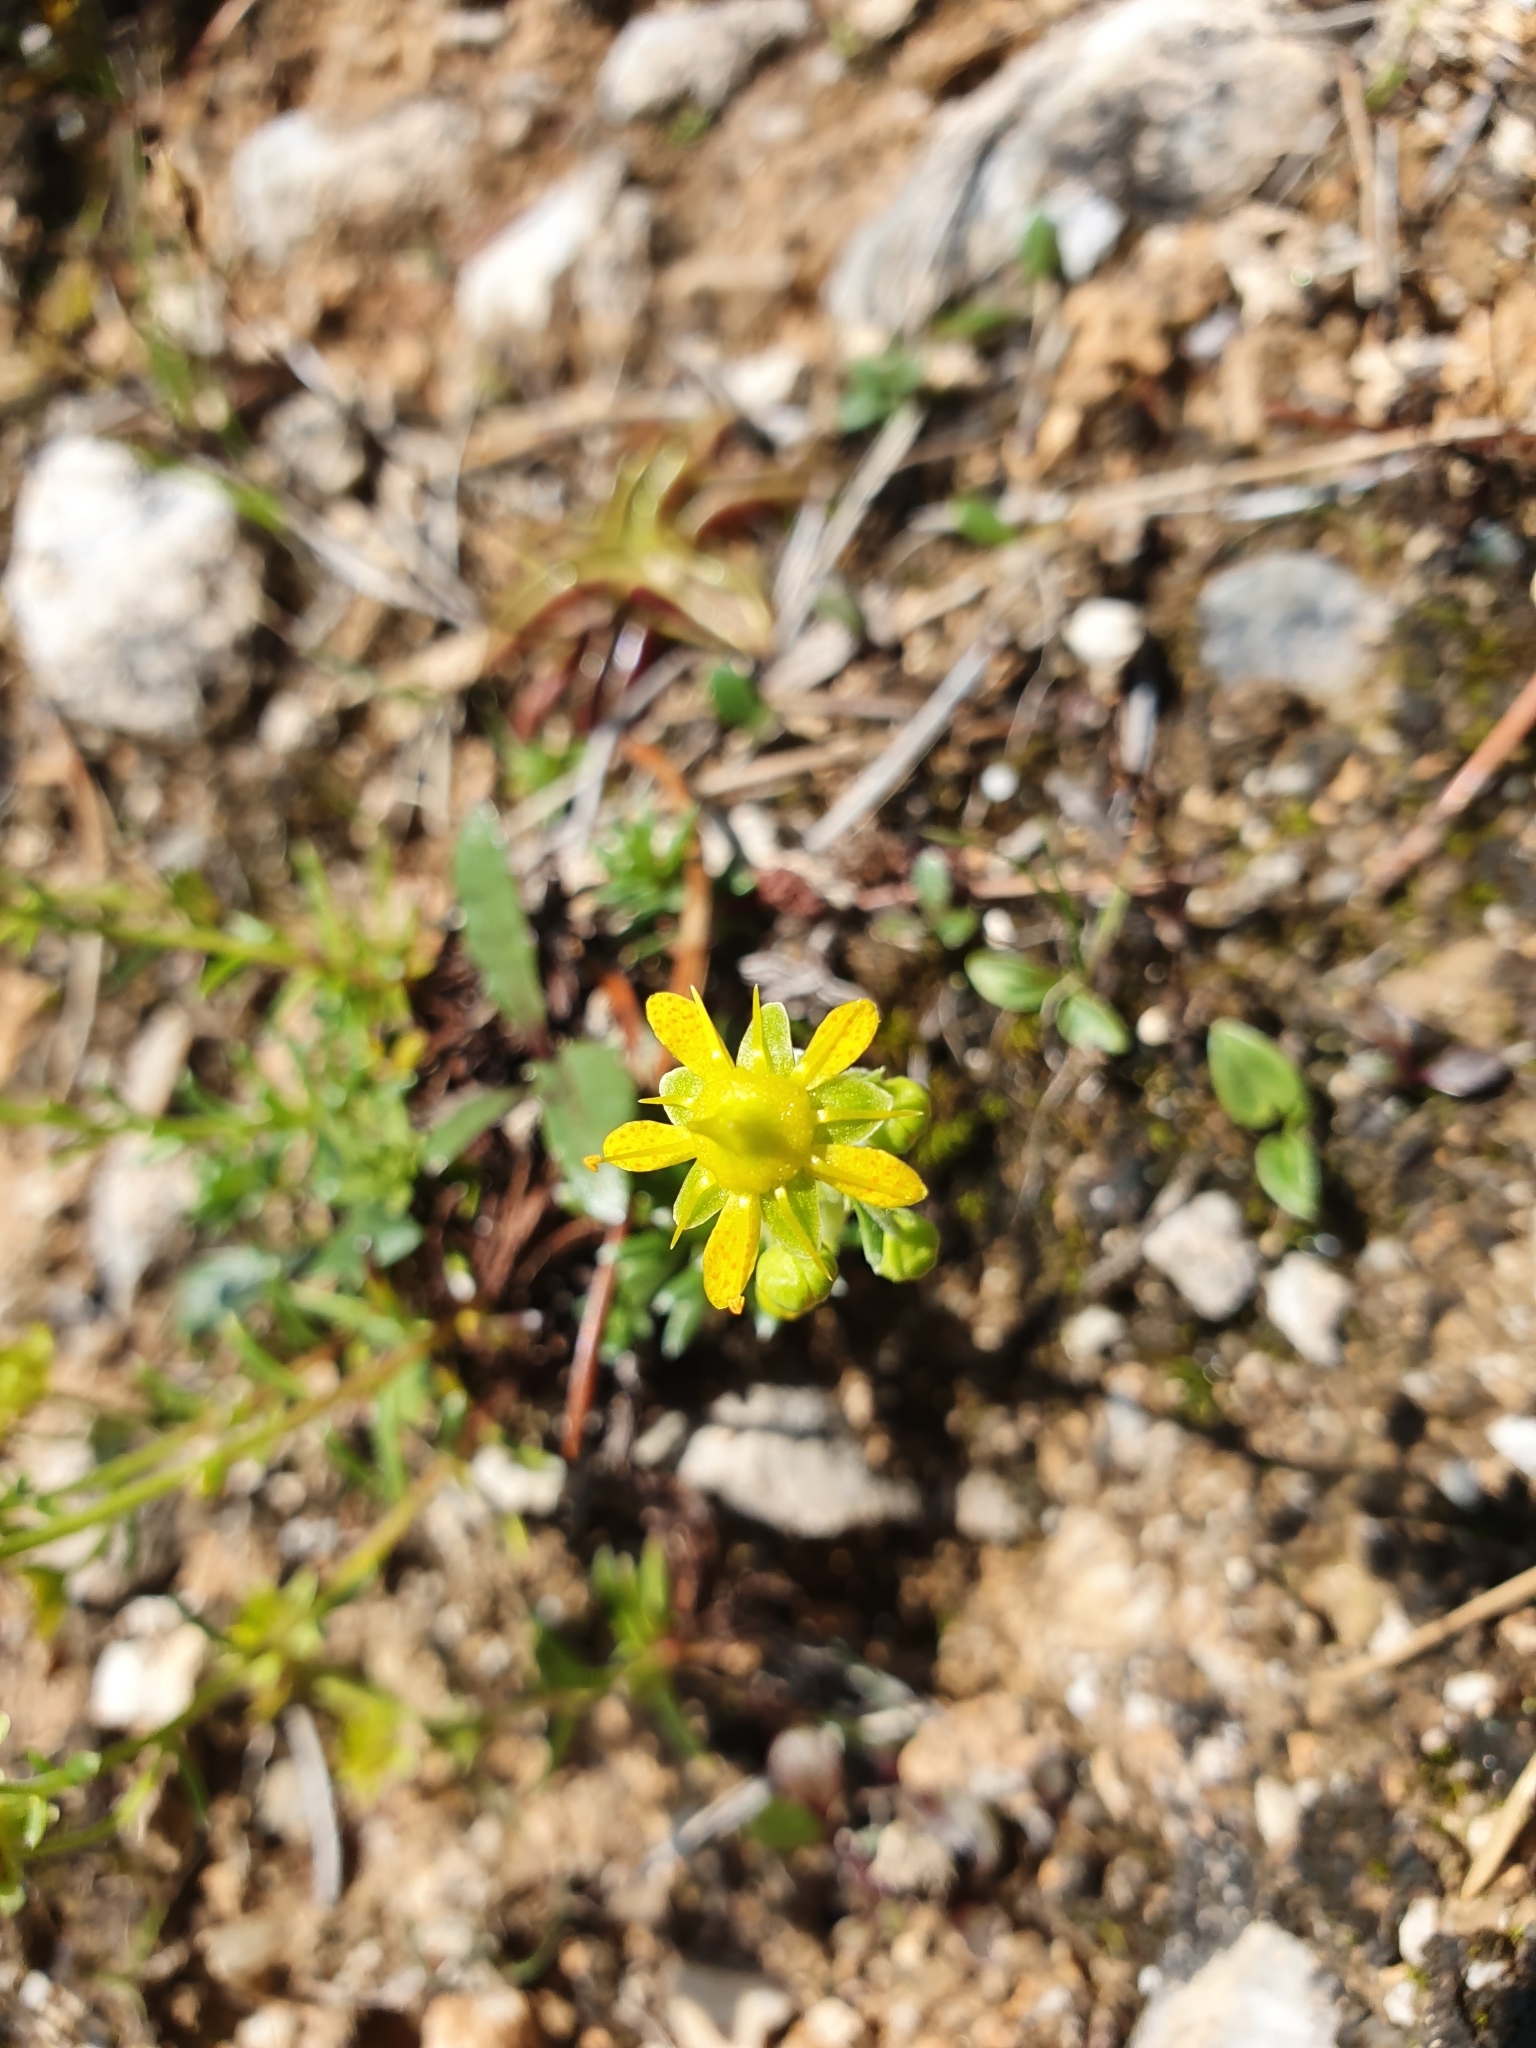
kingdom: Plantae
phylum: Tracheophyta
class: Magnoliopsida
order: Saxifragales
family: Saxifragaceae
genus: Saxifraga
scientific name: Saxifraga aizoides
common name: Yellow mountain saxifrage
